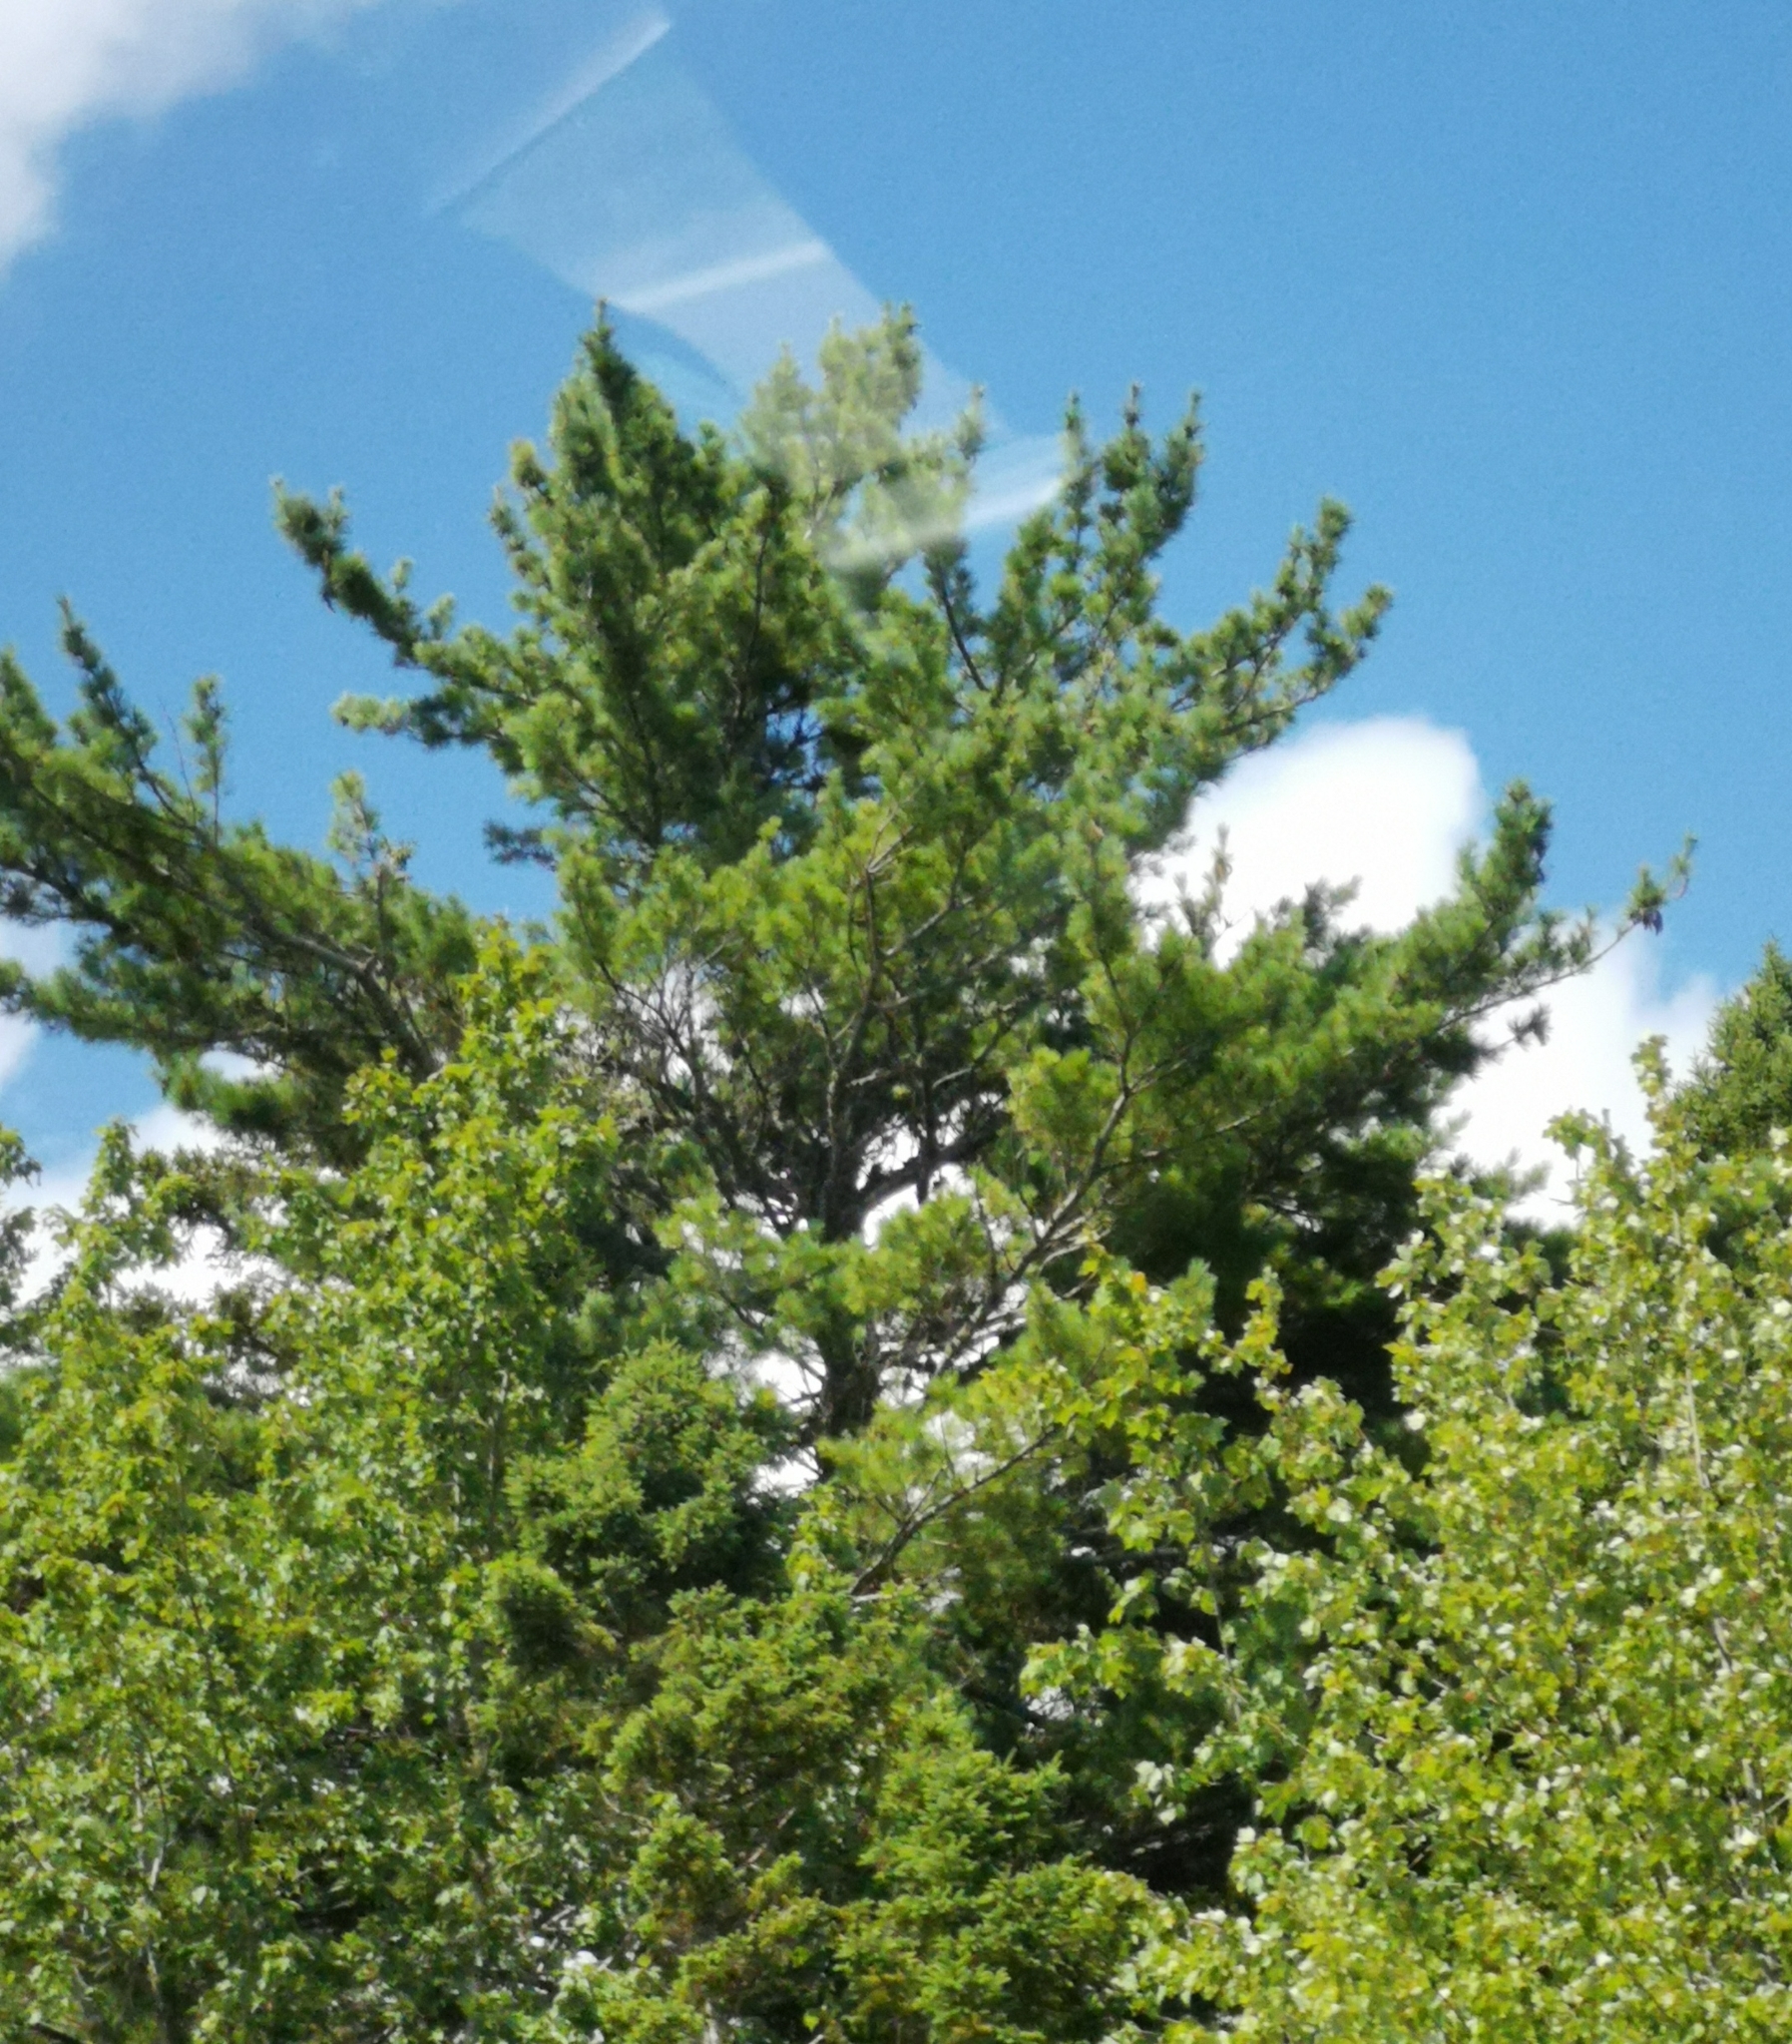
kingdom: Plantae
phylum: Tracheophyta
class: Pinopsida
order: Pinales
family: Pinaceae
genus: Pinus
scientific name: Pinus strobus
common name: Weymouth pine
